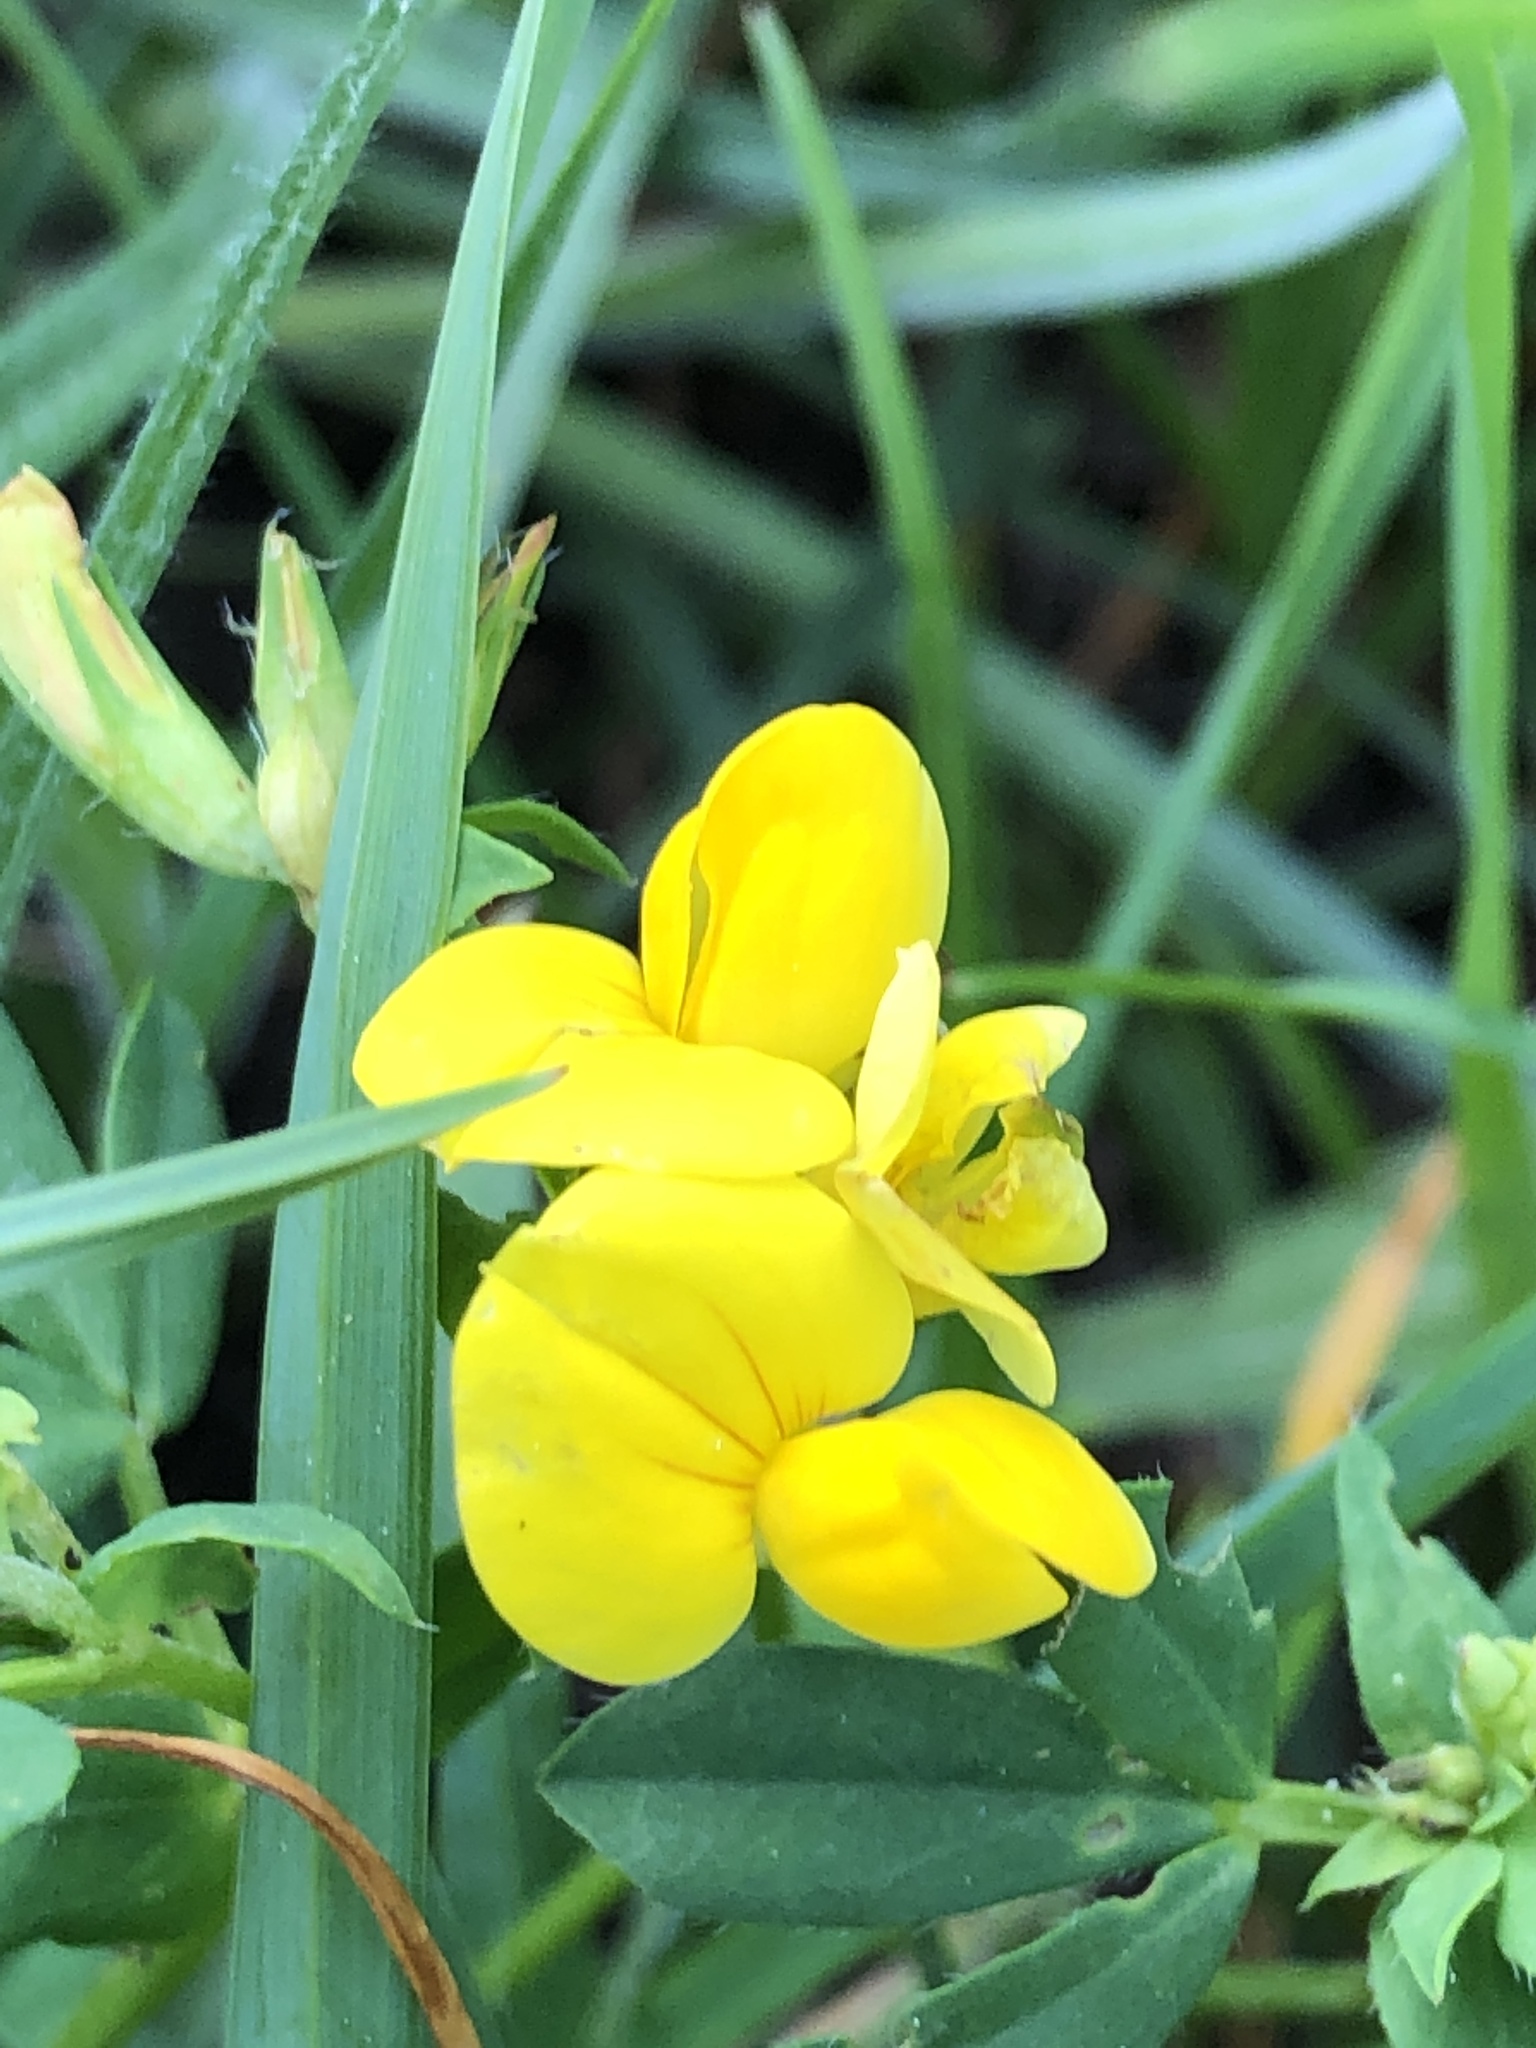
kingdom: Plantae
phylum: Tracheophyta
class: Magnoliopsida
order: Fabales
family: Fabaceae
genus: Lotus
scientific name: Lotus corniculatus
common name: Common bird's-foot-trefoil
